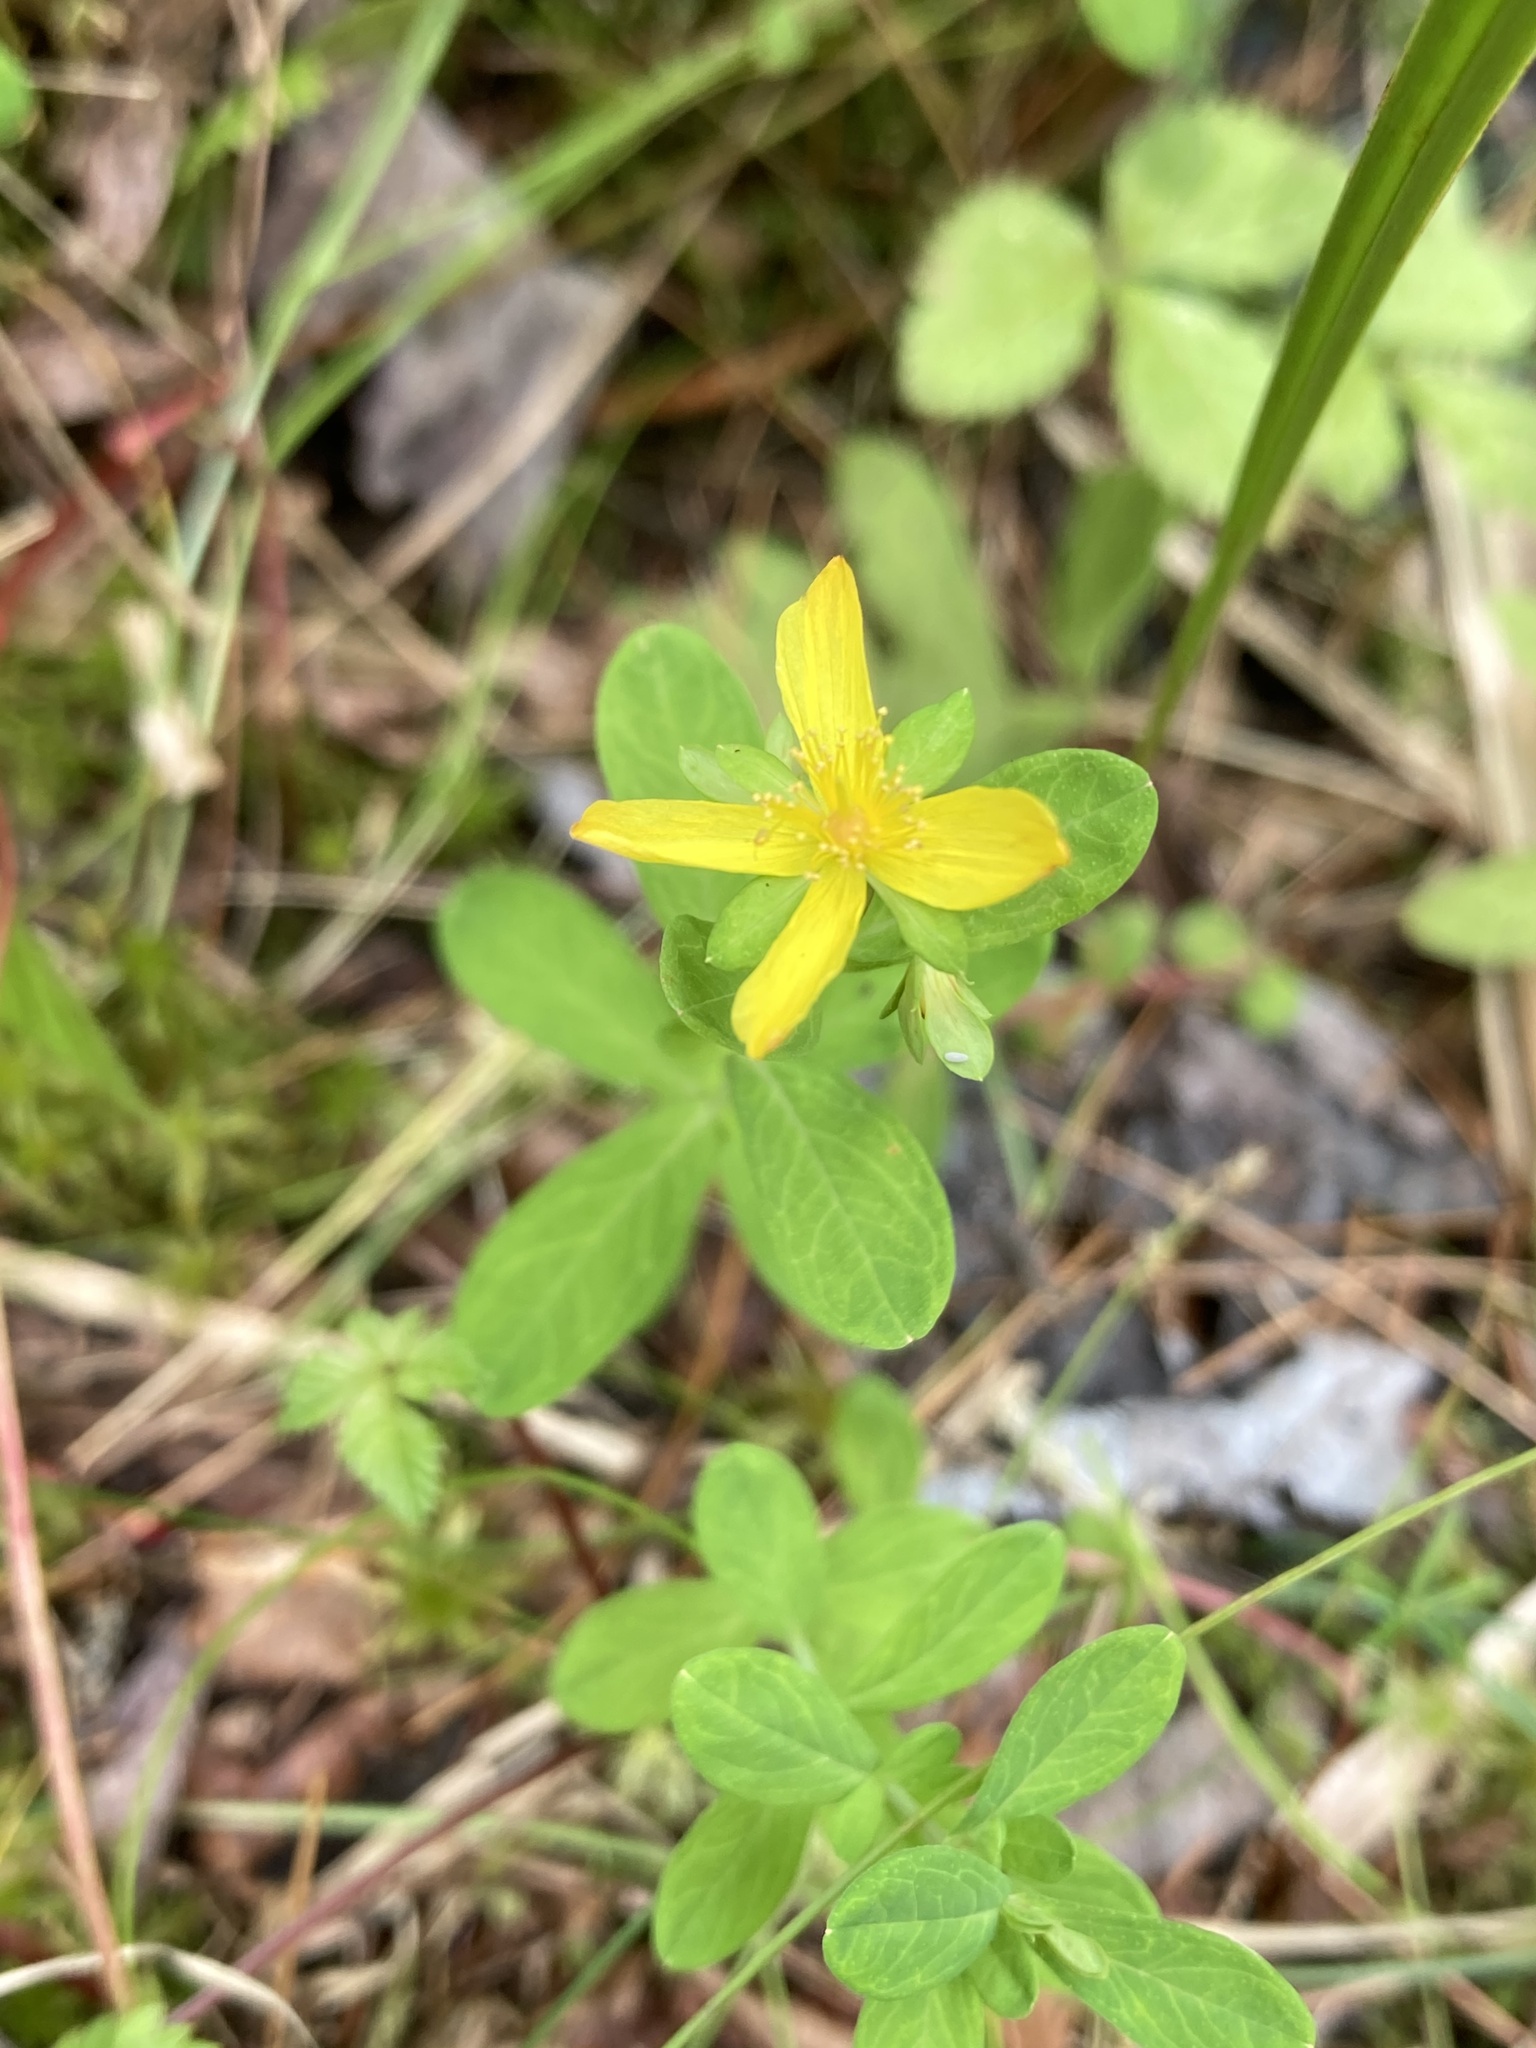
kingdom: Plantae
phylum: Tracheophyta
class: Magnoliopsida
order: Malpighiales
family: Hypericaceae
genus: Hypericum
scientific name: Hypericum ellipticum
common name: Elliptic st. john's-wort
